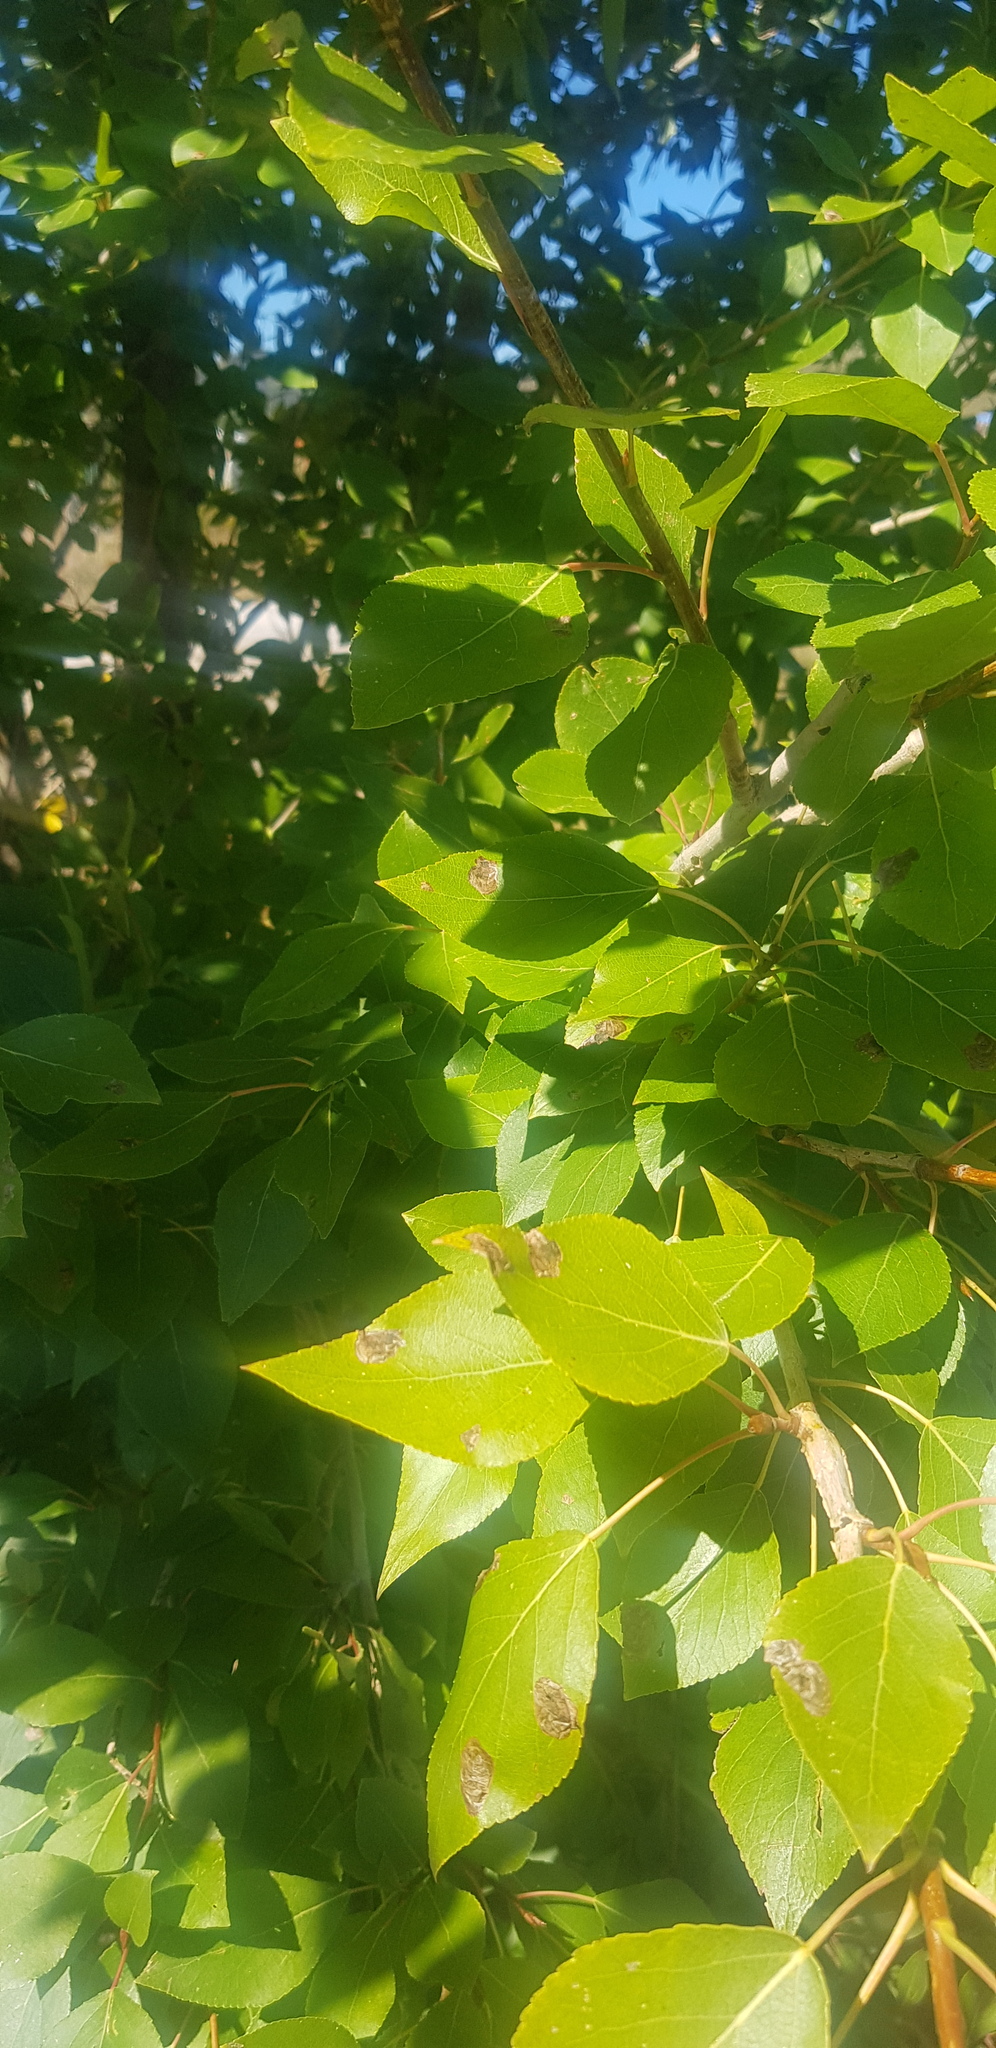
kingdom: Plantae
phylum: Tracheophyta
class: Magnoliopsida
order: Malpighiales
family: Salicaceae
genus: Populus
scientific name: Populus laurifolia
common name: Laurel-leaf poplar
